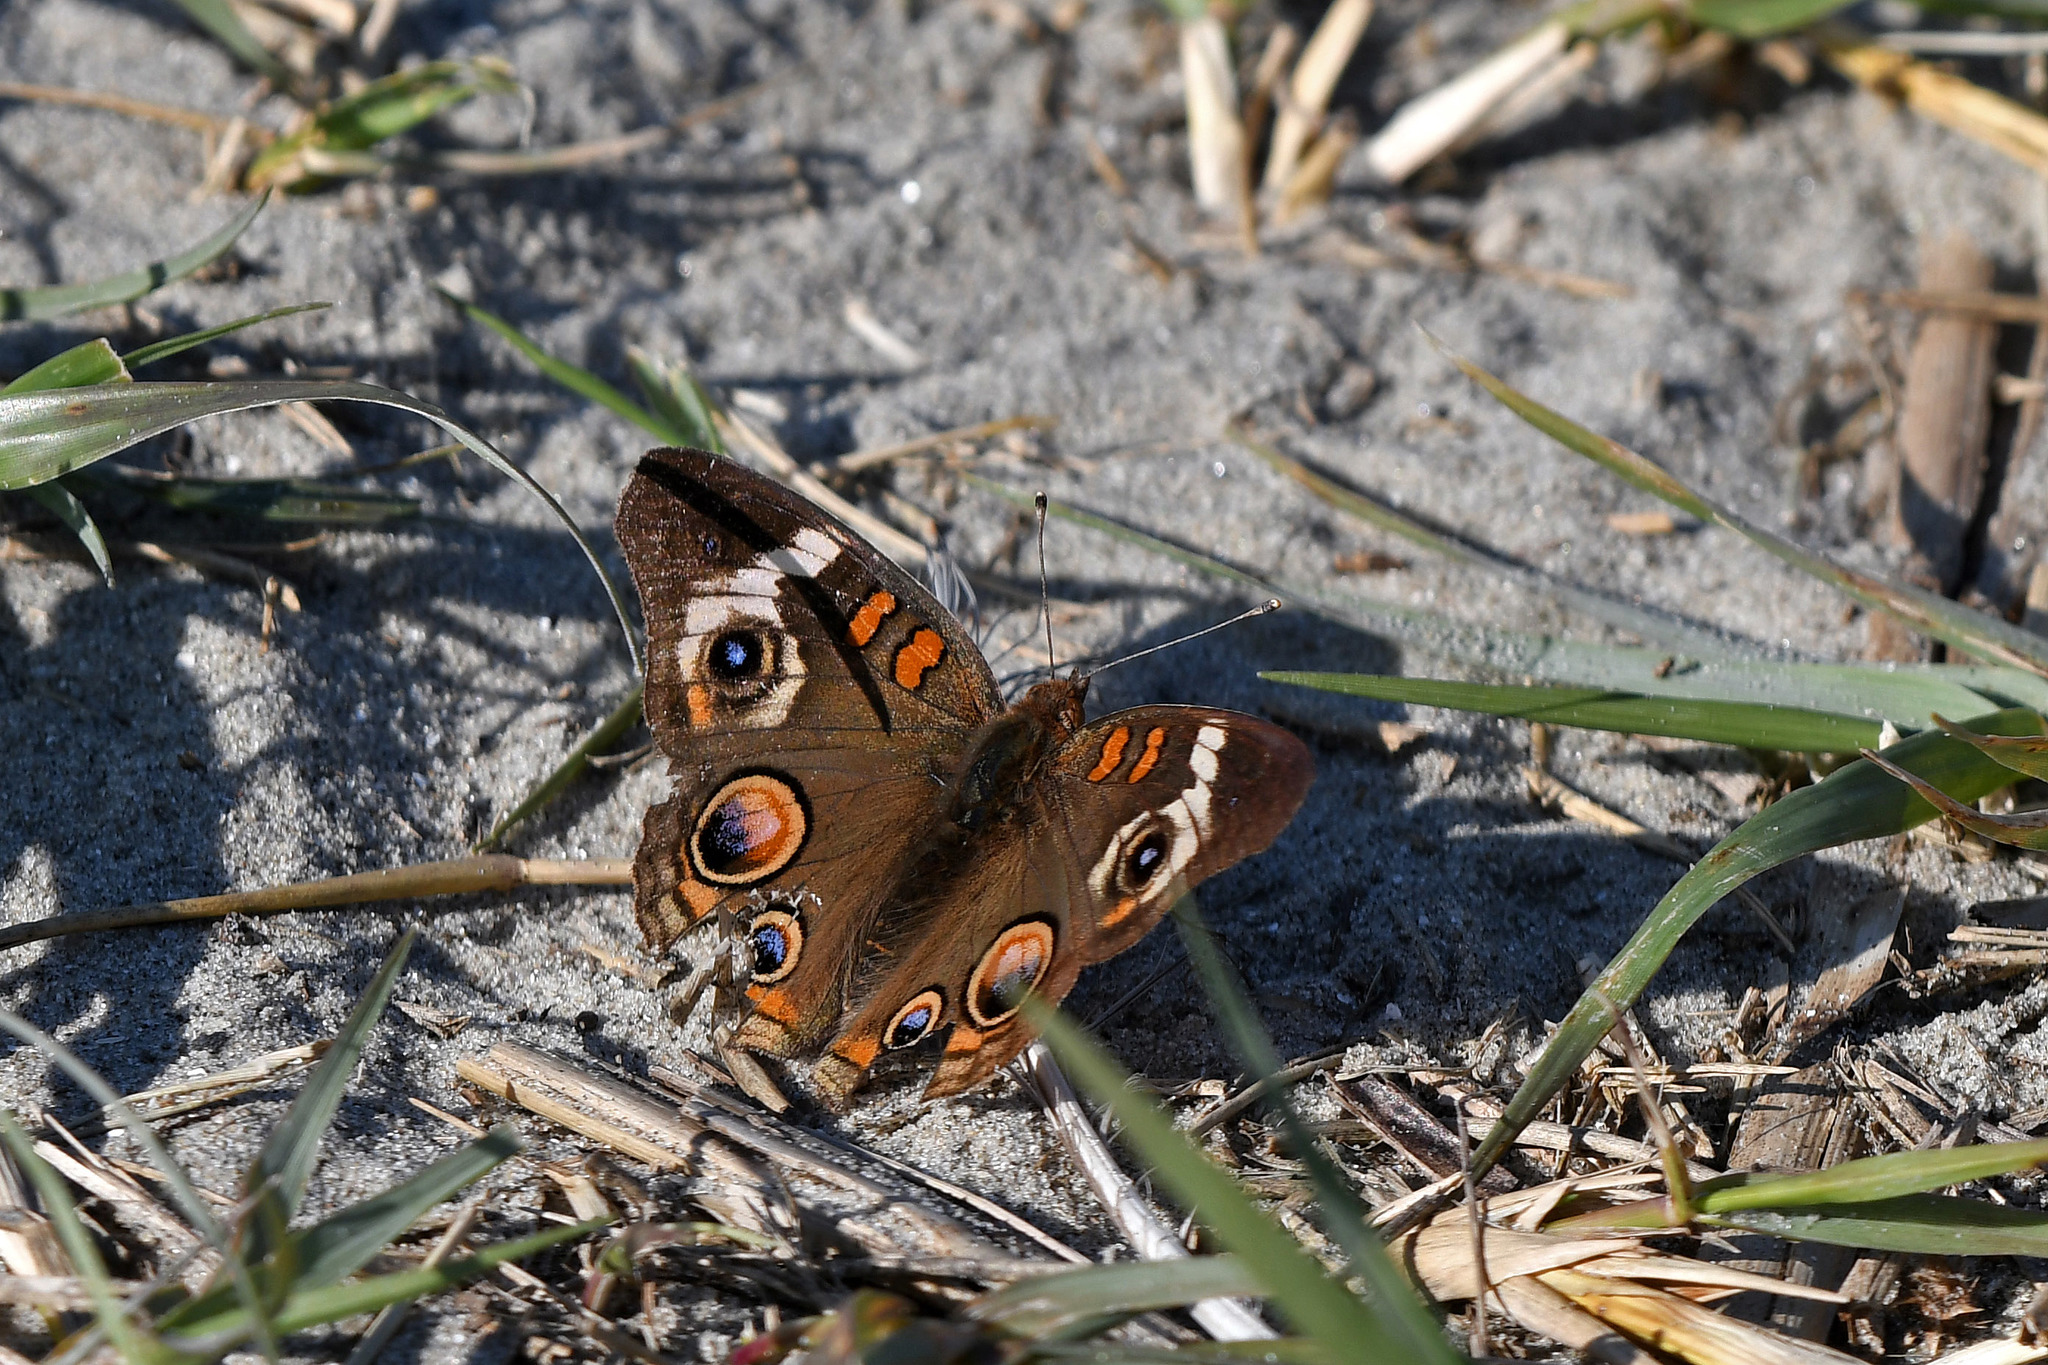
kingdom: Animalia
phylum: Arthropoda
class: Insecta
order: Lepidoptera
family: Nymphalidae
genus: Junonia
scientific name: Junonia coenia
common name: Common buckeye
